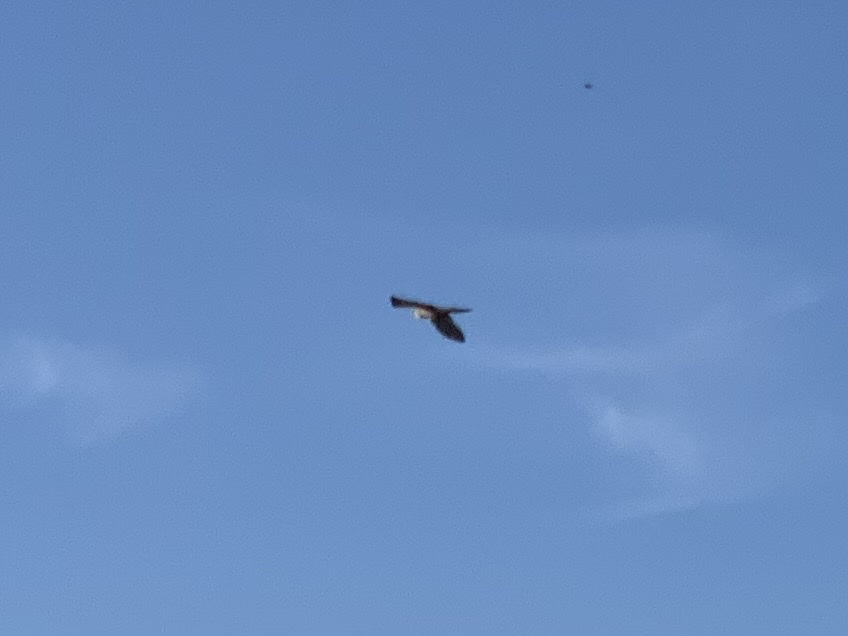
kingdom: Animalia
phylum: Chordata
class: Aves
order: Falconiformes
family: Falconidae
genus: Falco
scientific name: Falco tinnunculus
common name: Common kestrel
